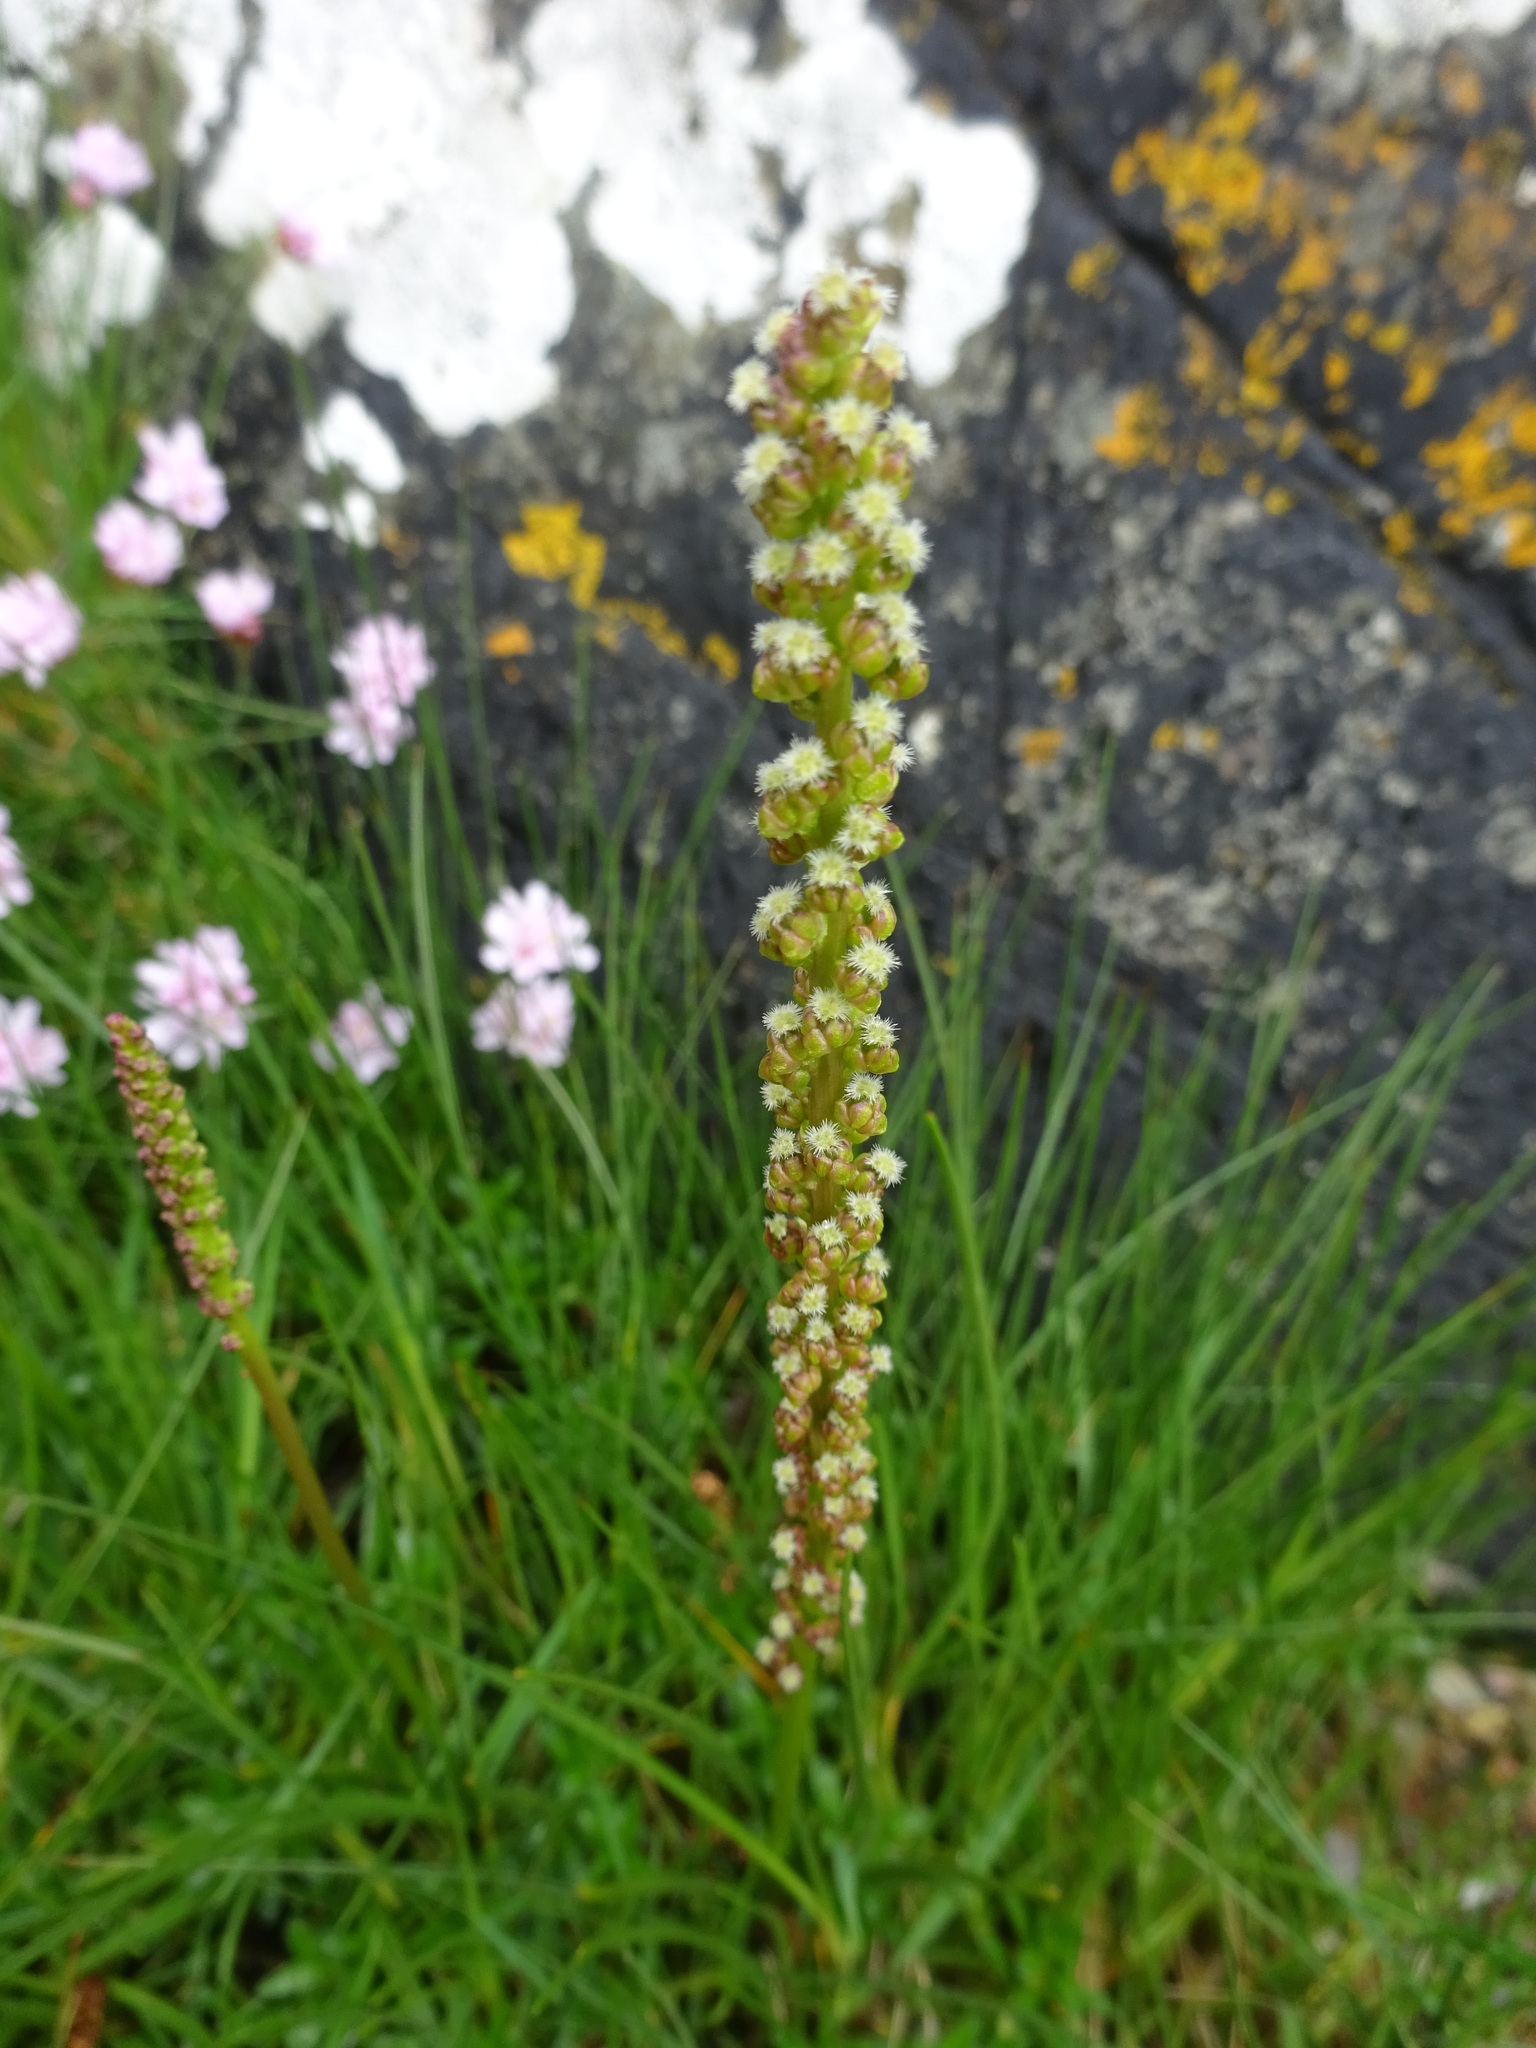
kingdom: Plantae
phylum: Tracheophyta
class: Liliopsida
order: Alismatales
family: Juncaginaceae
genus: Triglochin
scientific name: Triglochin maritima
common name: Sea arrowgrass
